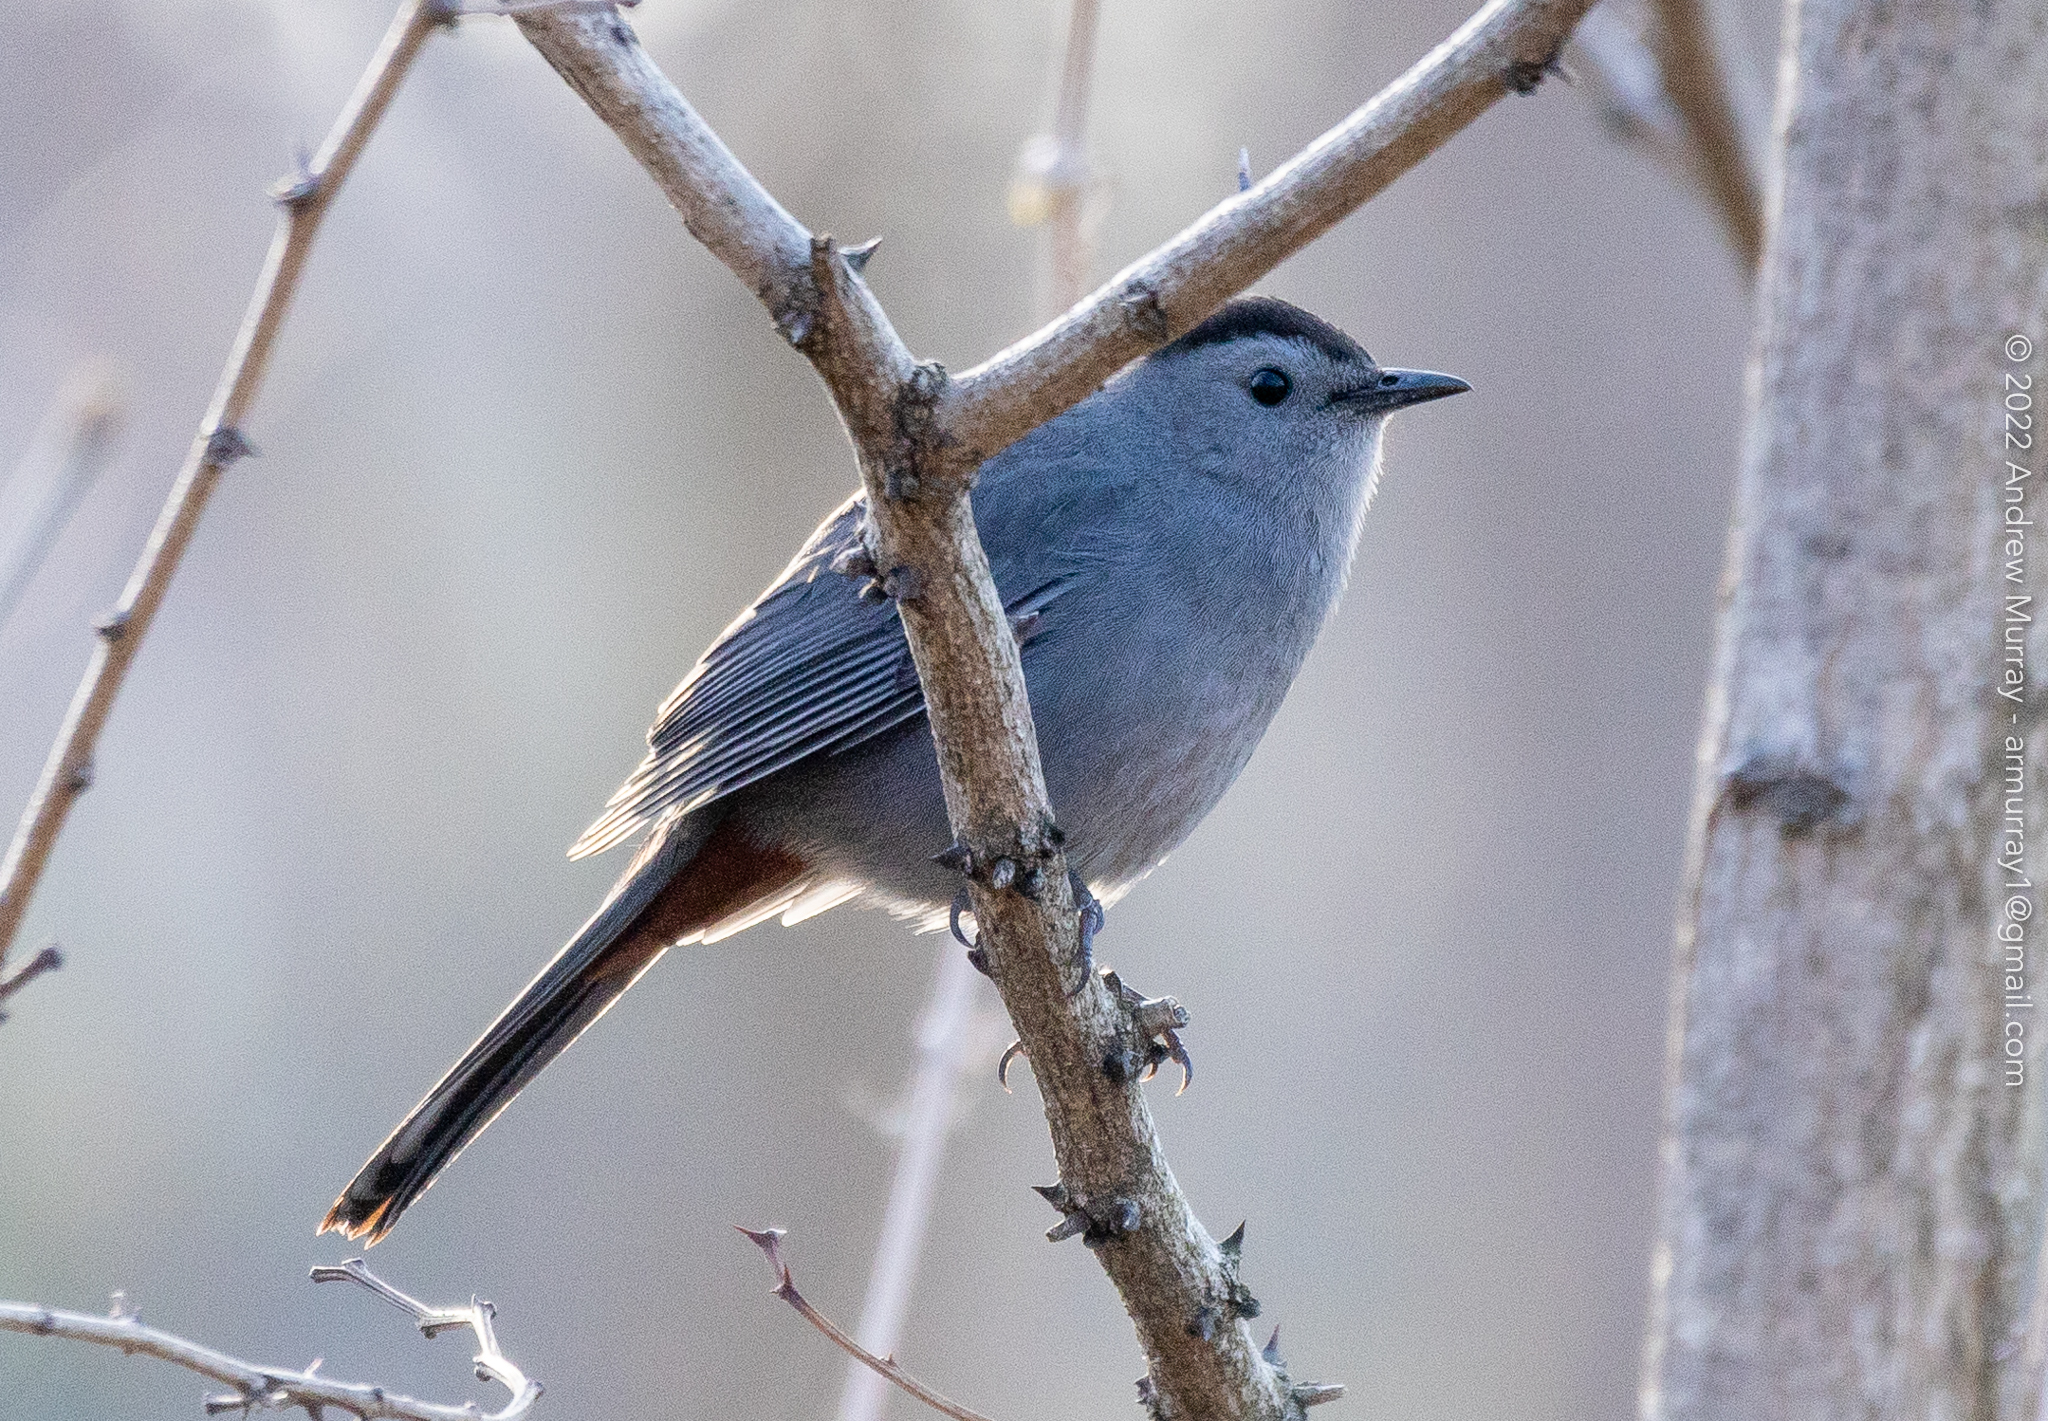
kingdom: Animalia
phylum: Chordata
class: Aves
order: Passeriformes
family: Mimidae
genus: Dumetella
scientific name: Dumetella carolinensis
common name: Gray catbird
